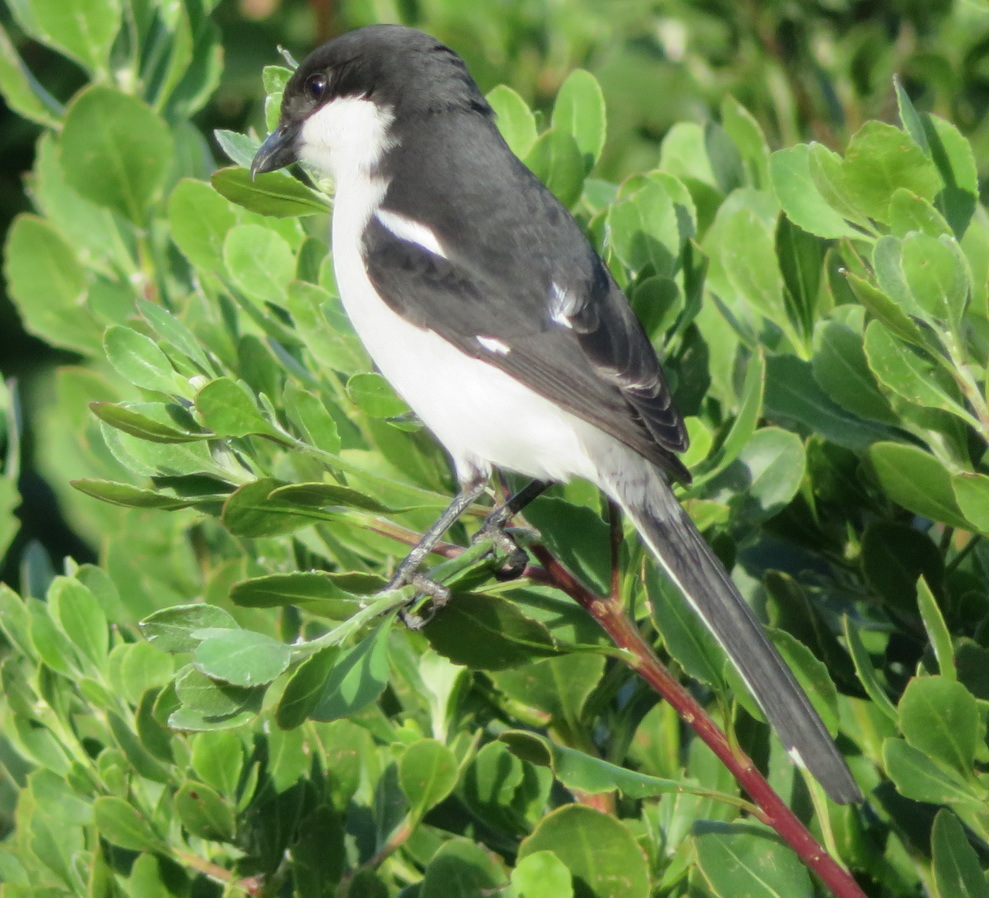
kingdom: Animalia
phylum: Chordata
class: Aves
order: Passeriformes
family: Laniidae
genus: Lanius
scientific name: Lanius collaris
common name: Southern fiscal
